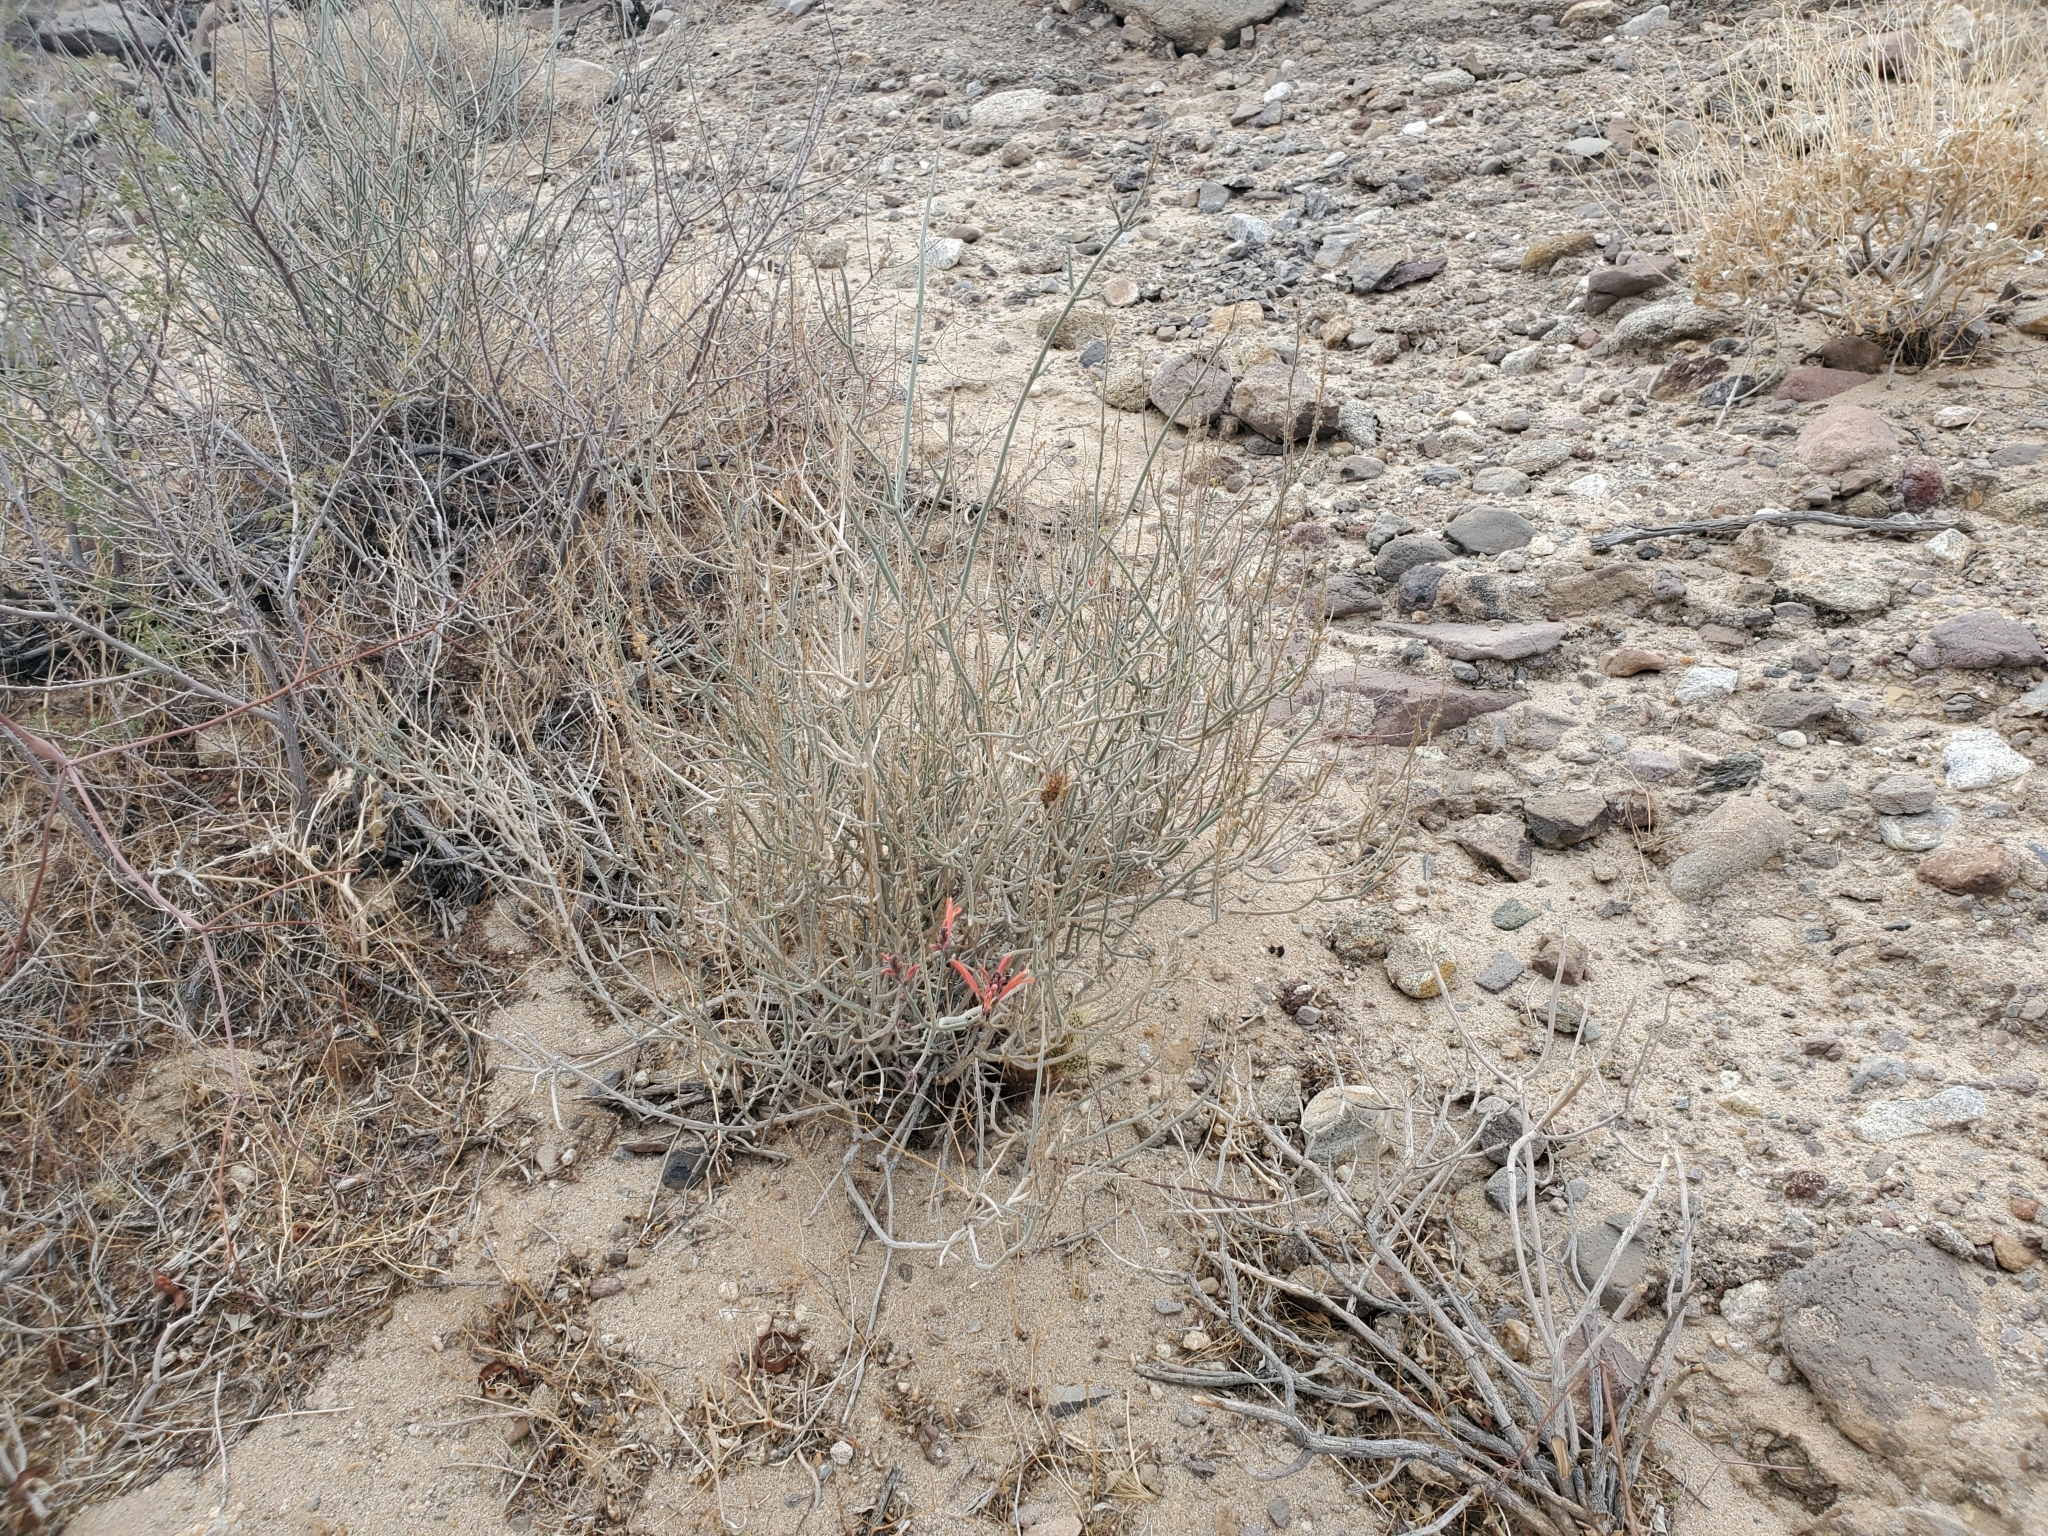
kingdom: Plantae
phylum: Tracheophyta
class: Magnoliopsida
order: Lamiales
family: Acanthaceae
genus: Justicia
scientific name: Justicia californica
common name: Chuparosa-honeysuckle
